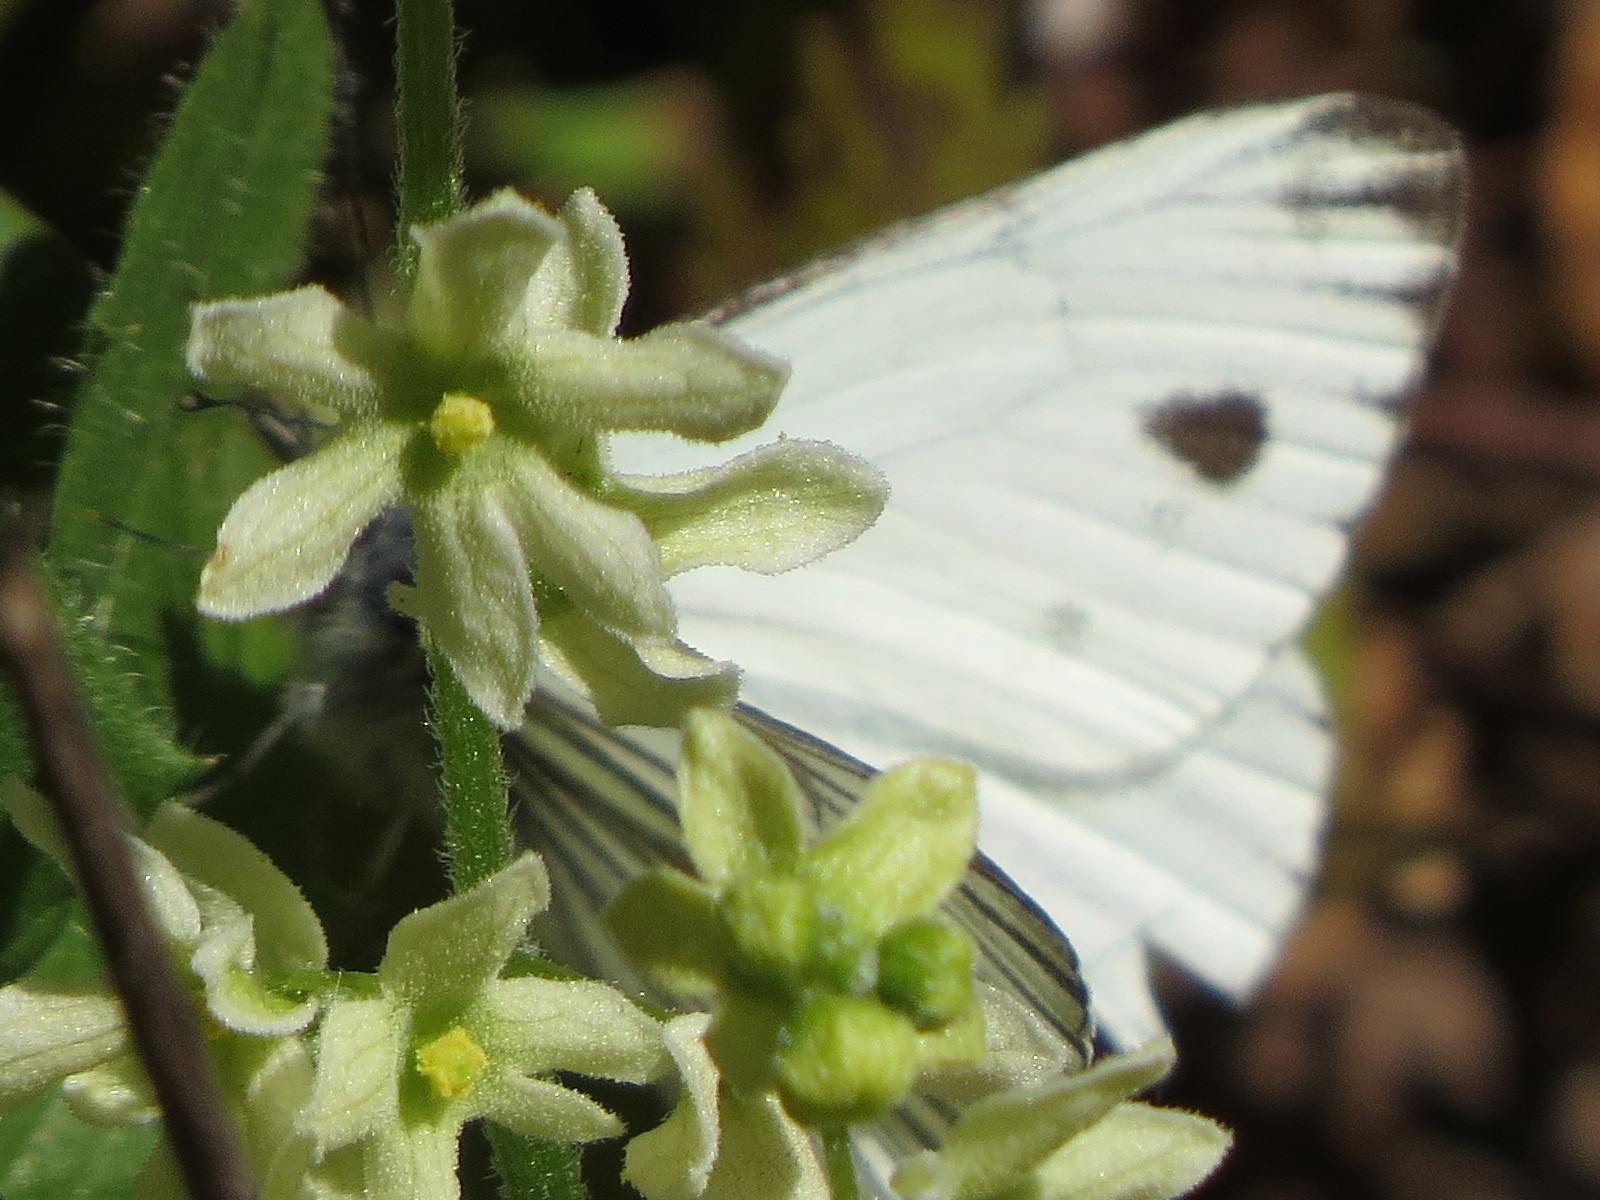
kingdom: Animalia
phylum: Arthropoda
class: Insecta
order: Lepidoptera
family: Pieridae
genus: Pieris
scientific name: Pieris marginalis
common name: Margined white
